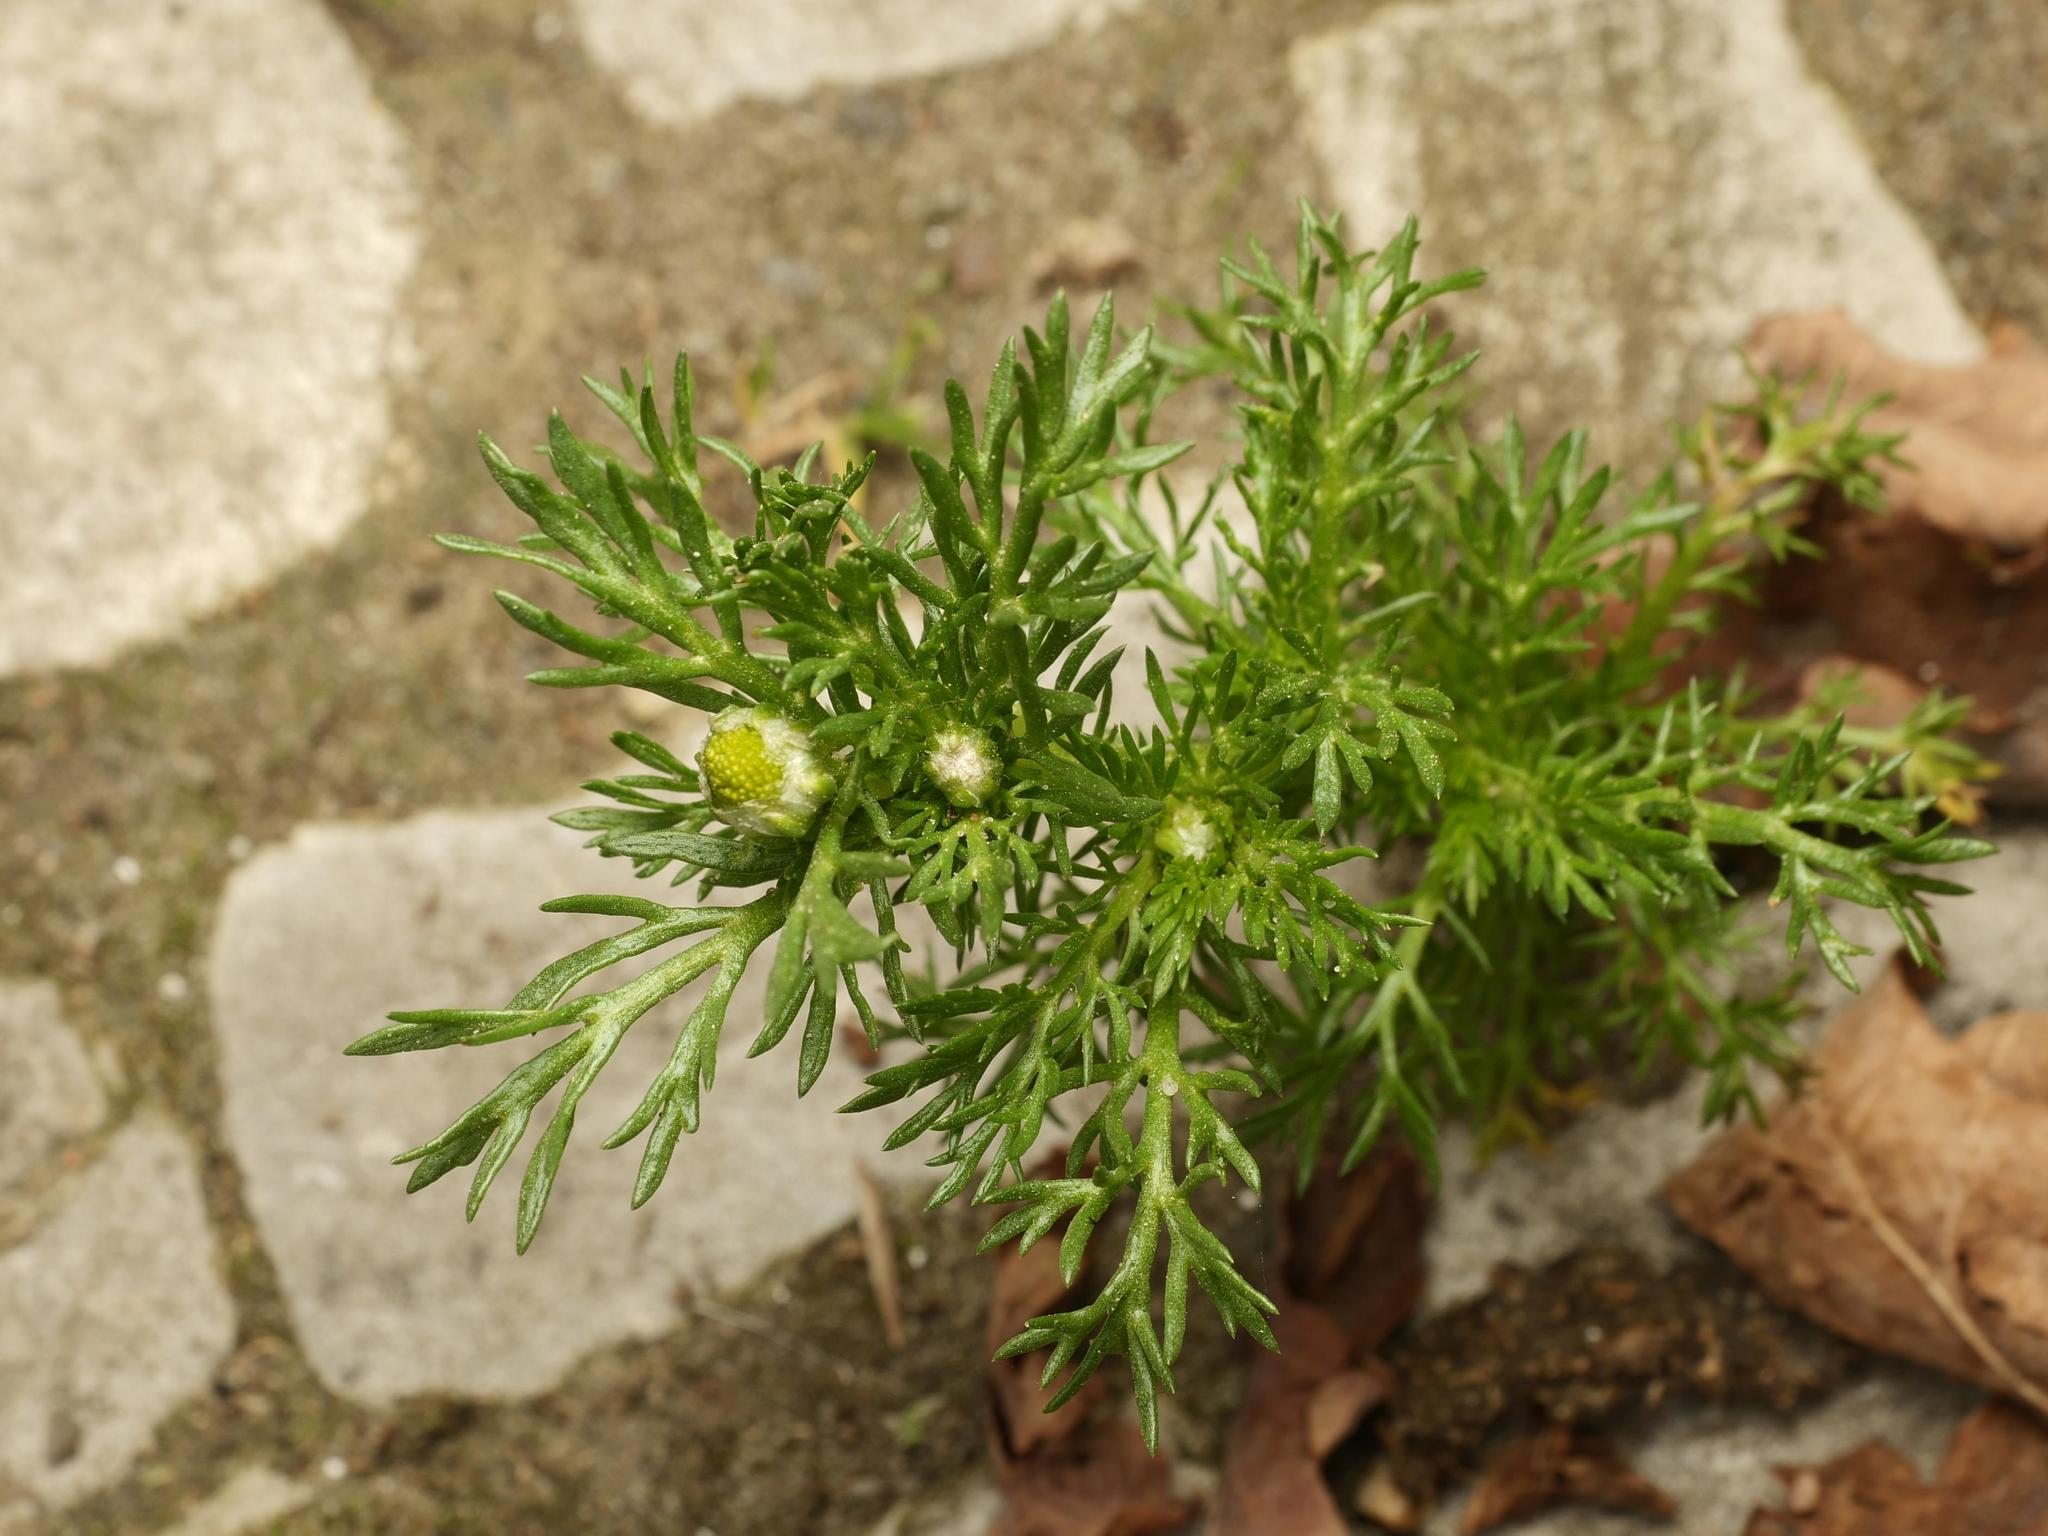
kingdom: Plantae
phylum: Tracheophyta
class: Magnoliopsida
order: Asterales
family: Asteraceae
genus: Matricaria
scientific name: Matricaria discoidea
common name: Disc mayweed
